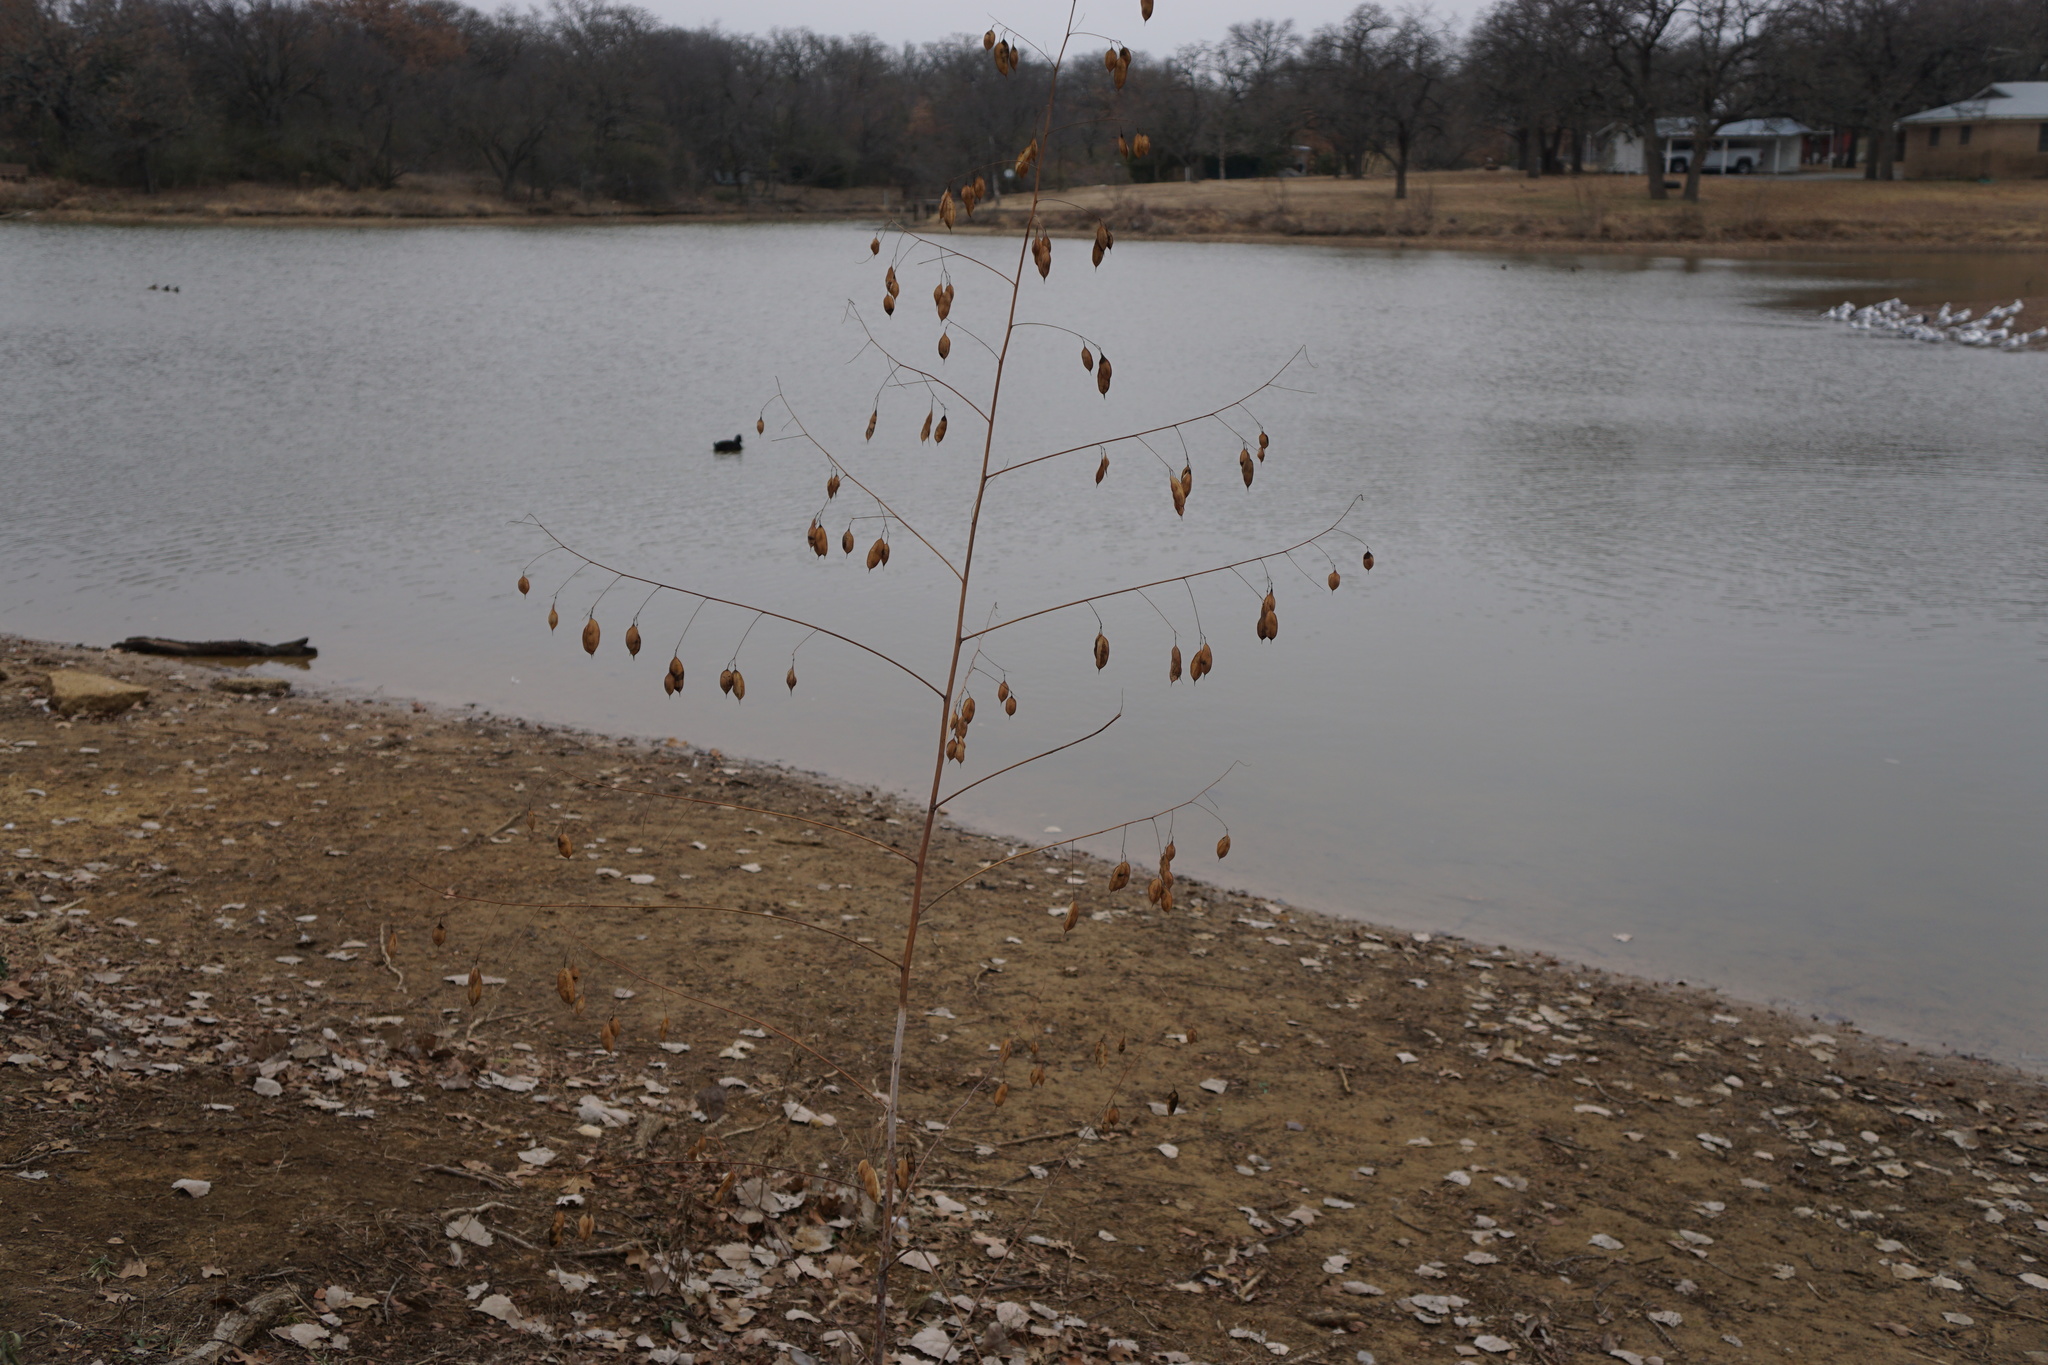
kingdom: Plantae
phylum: Tracheophyta
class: Magnoliopsida
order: Fabales
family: Fabaceae
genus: Sesbania
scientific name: Sesbania vesicaria
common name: Bagpod
